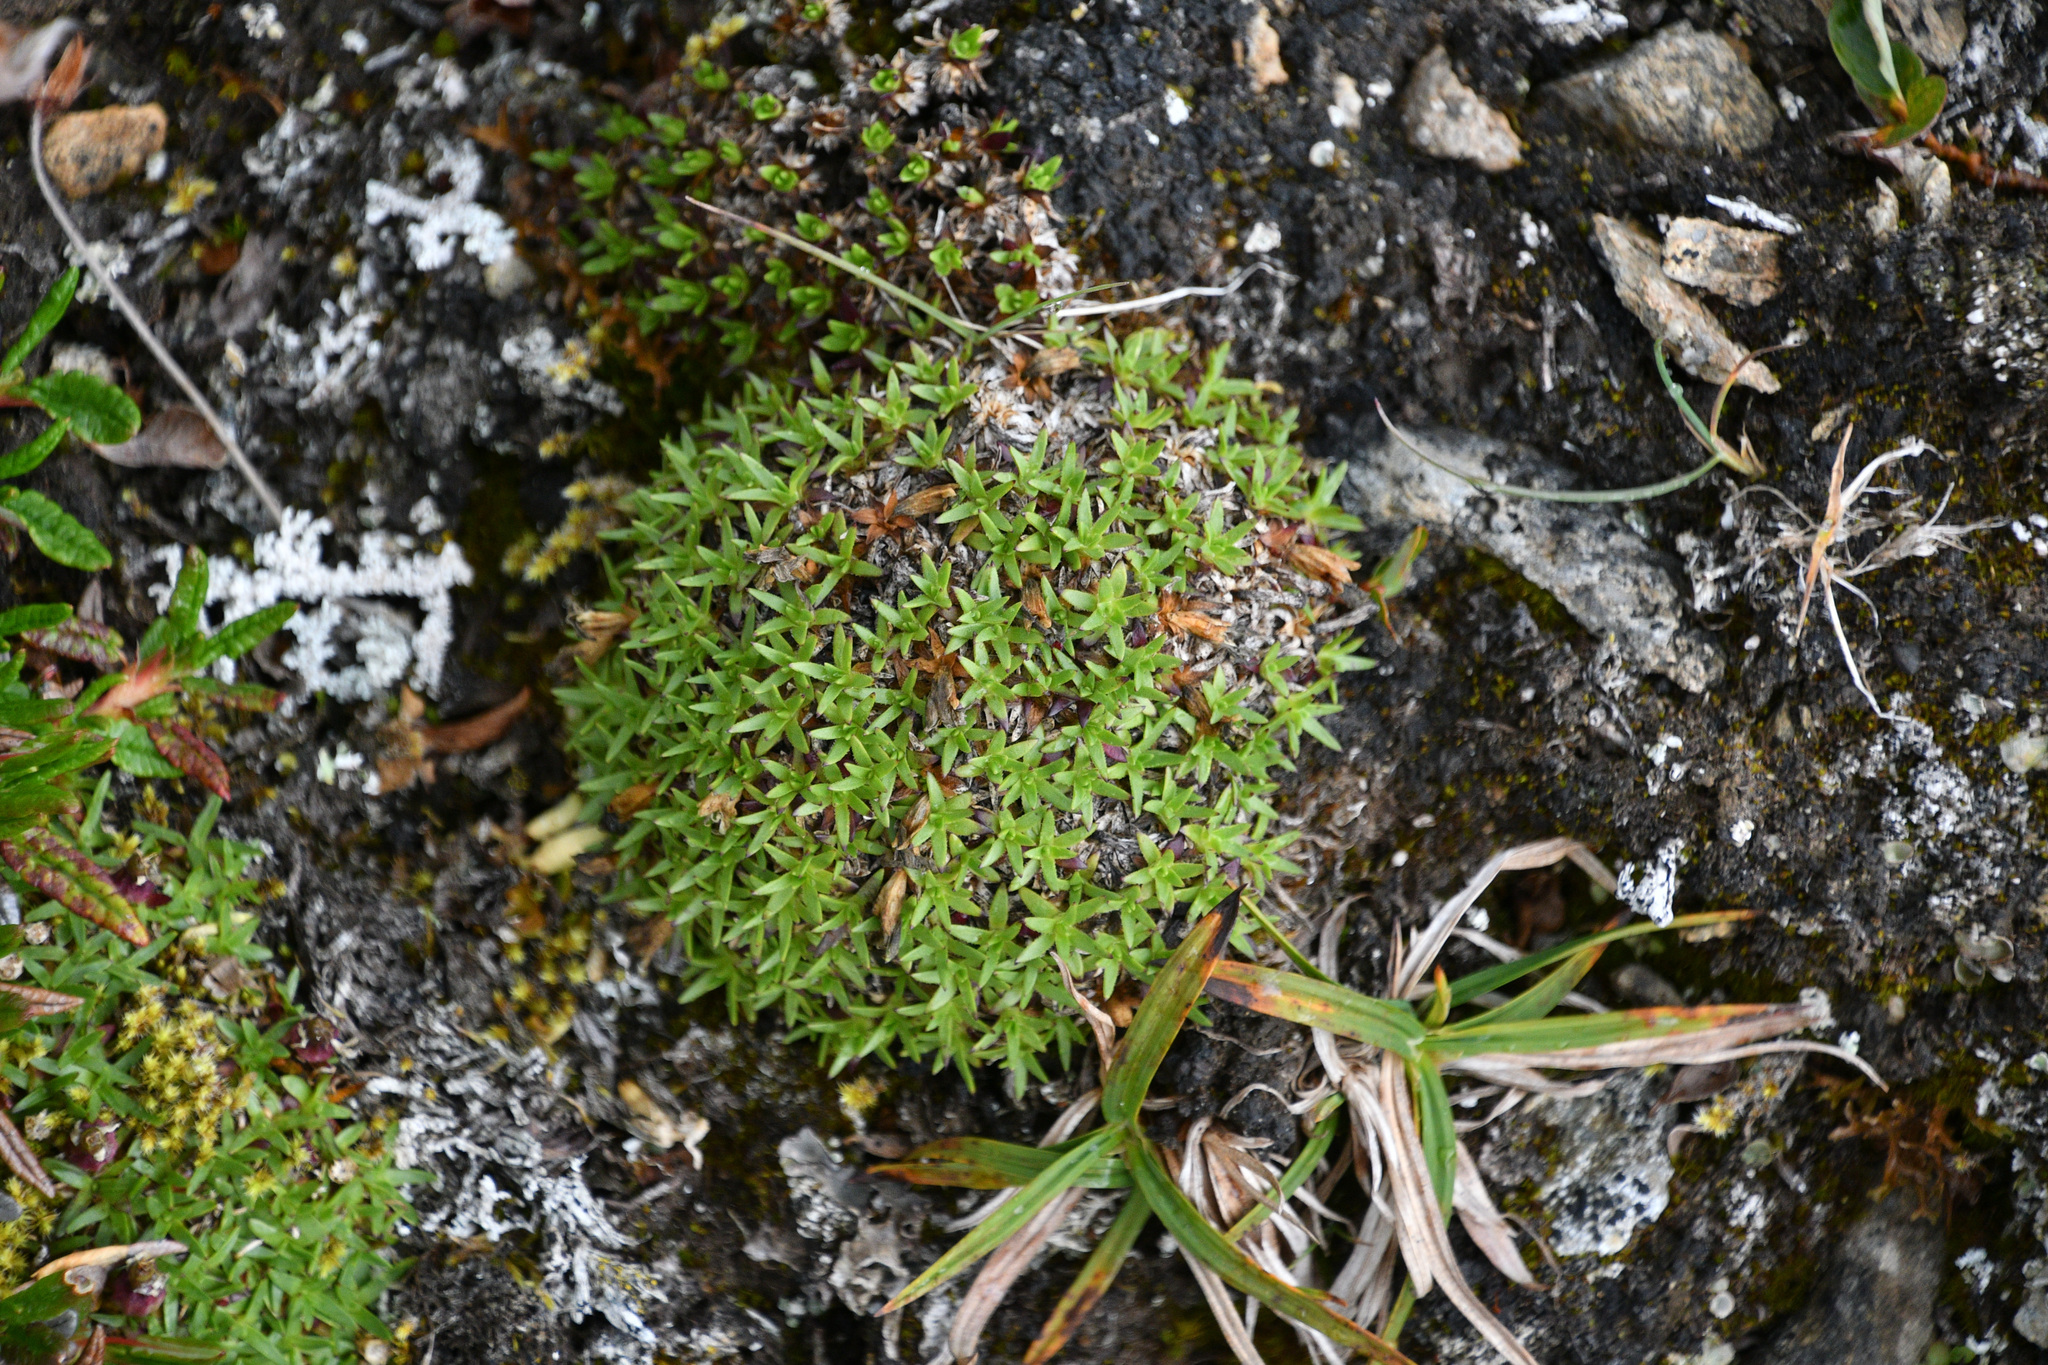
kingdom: Plantae
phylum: Tracheophyta
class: Magnoliopsida
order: Caryophyllales
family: Caryophyllaceae
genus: Silene
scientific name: Silene acaulis
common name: Moss campion
